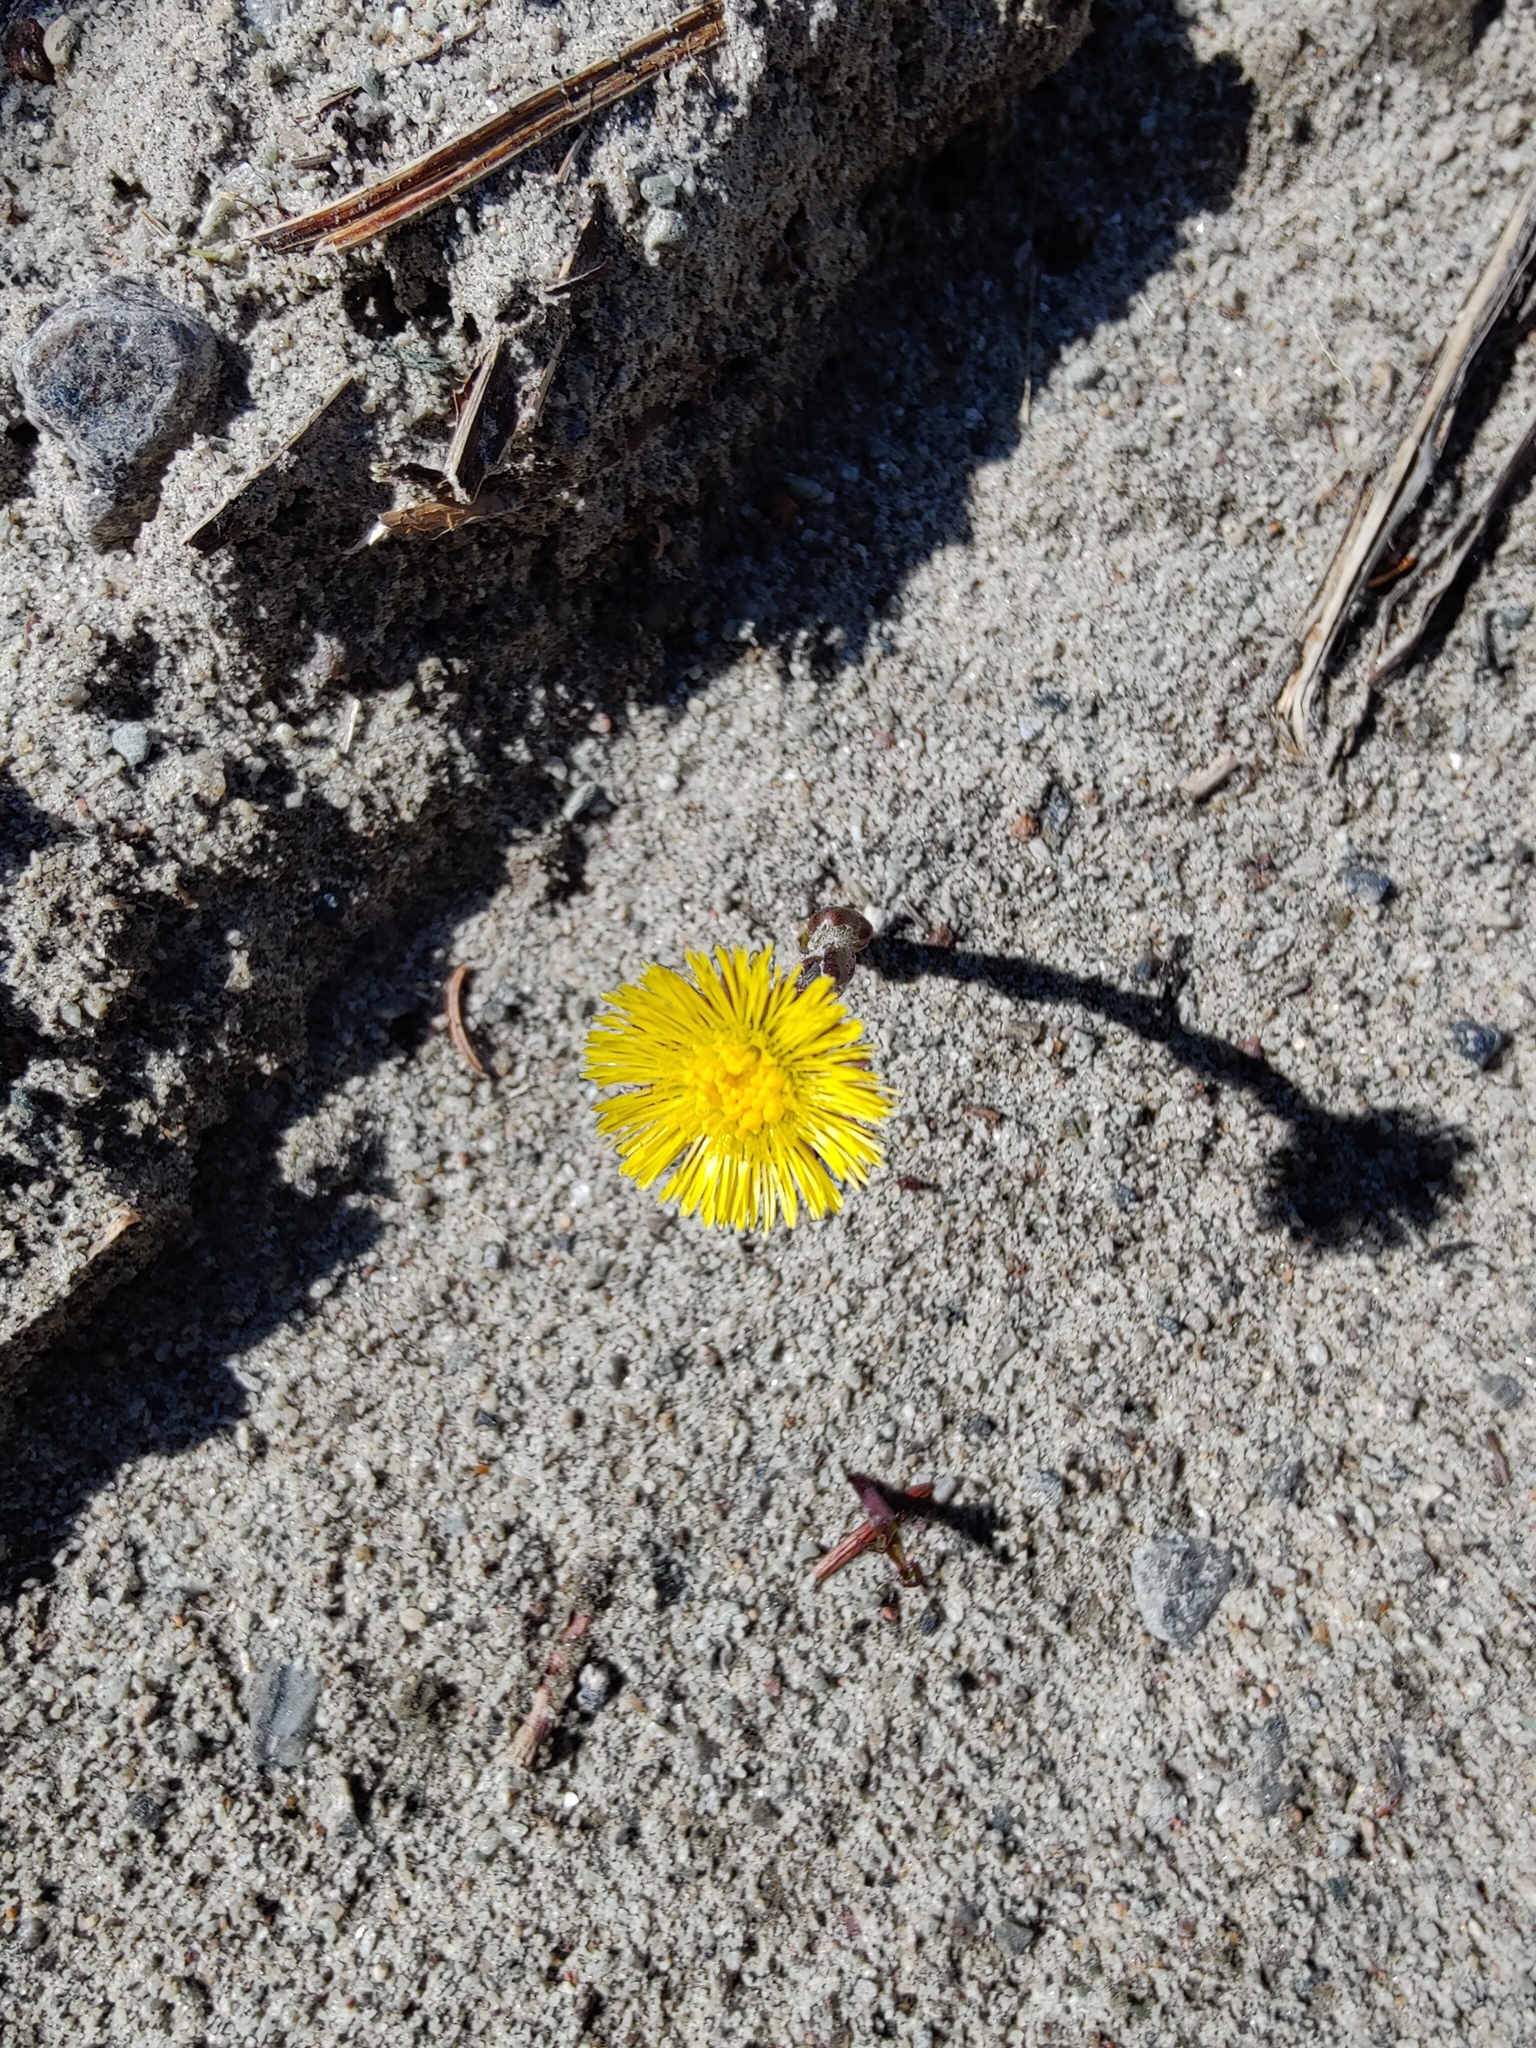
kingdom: Plantae
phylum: Tracheophyta
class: Magnoliopsida
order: Asterales
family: Asteraceae
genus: Tussilago
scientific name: Tussilago farfara
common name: Coltsfoot
